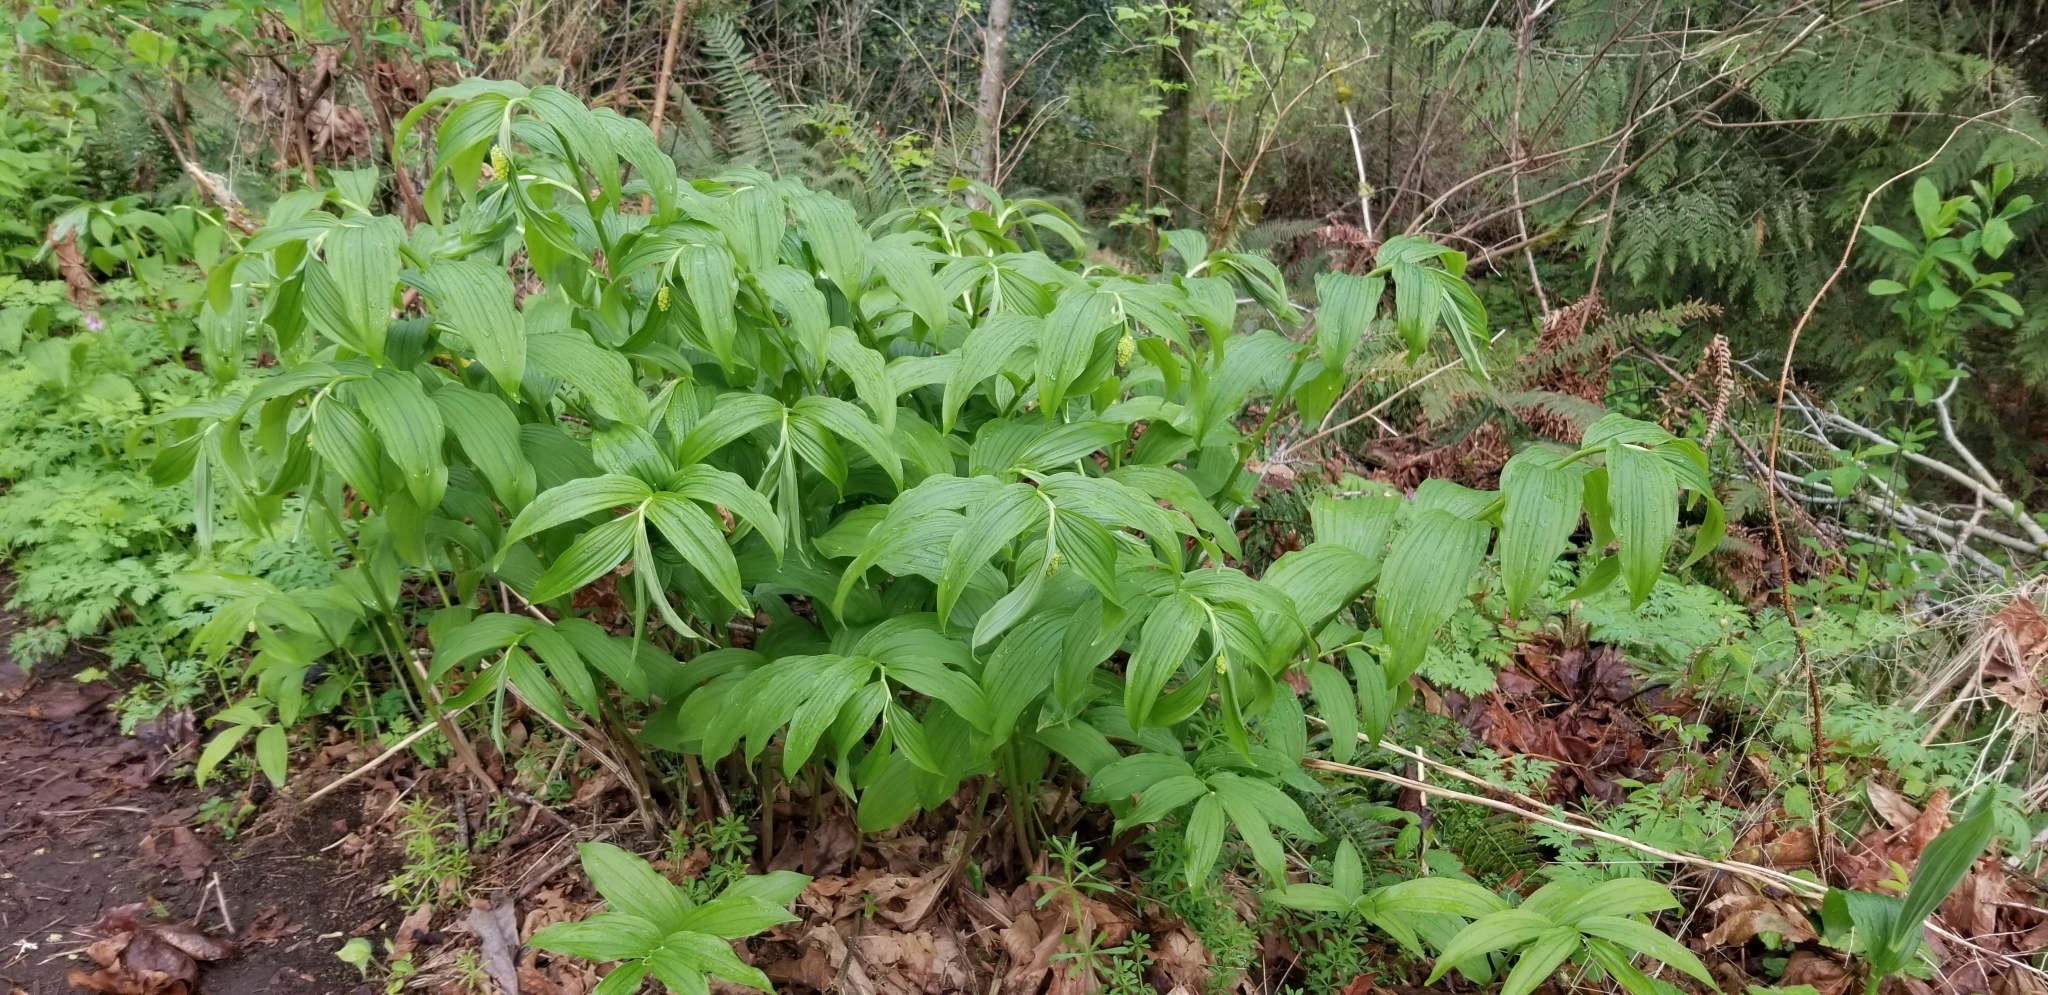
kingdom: Plantae
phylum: Tracheophyta
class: Liliopsida
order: Asparagales
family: Asparagaceae
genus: Maianthemum
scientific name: Maianthemum racemosum
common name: False spikenard
